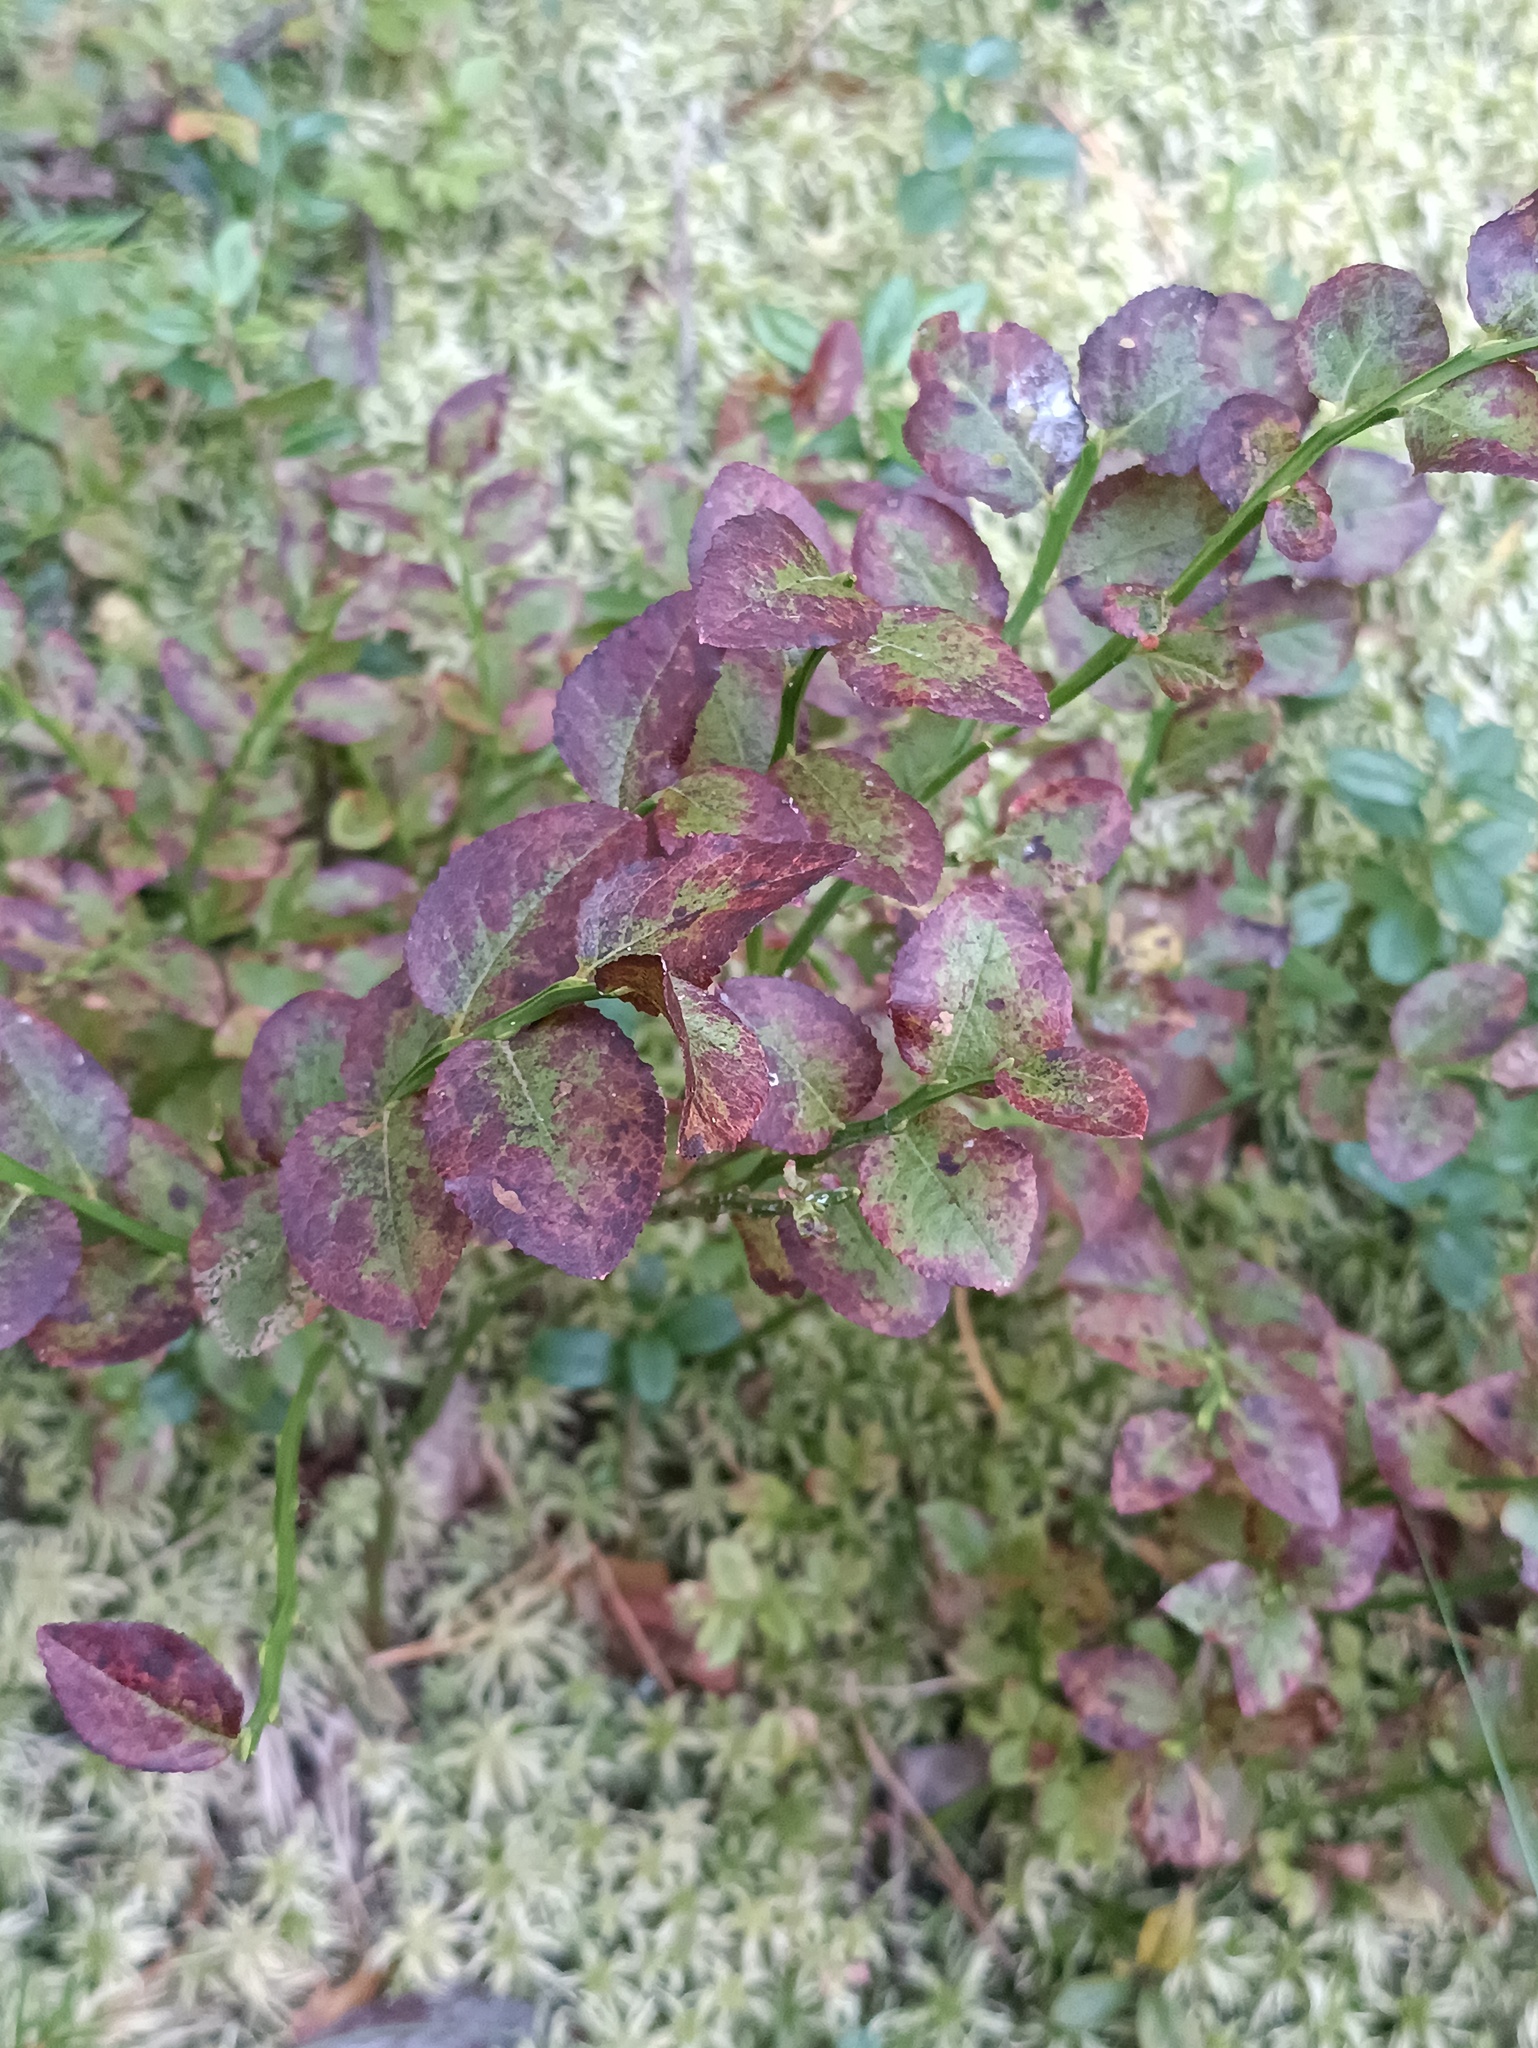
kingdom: Plantae
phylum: Tracheophyta
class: Magnoliopsida
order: Ericales
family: Ericaceae
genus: Vaccinium
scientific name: Vaccinium myrtillus
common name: Bilberry
